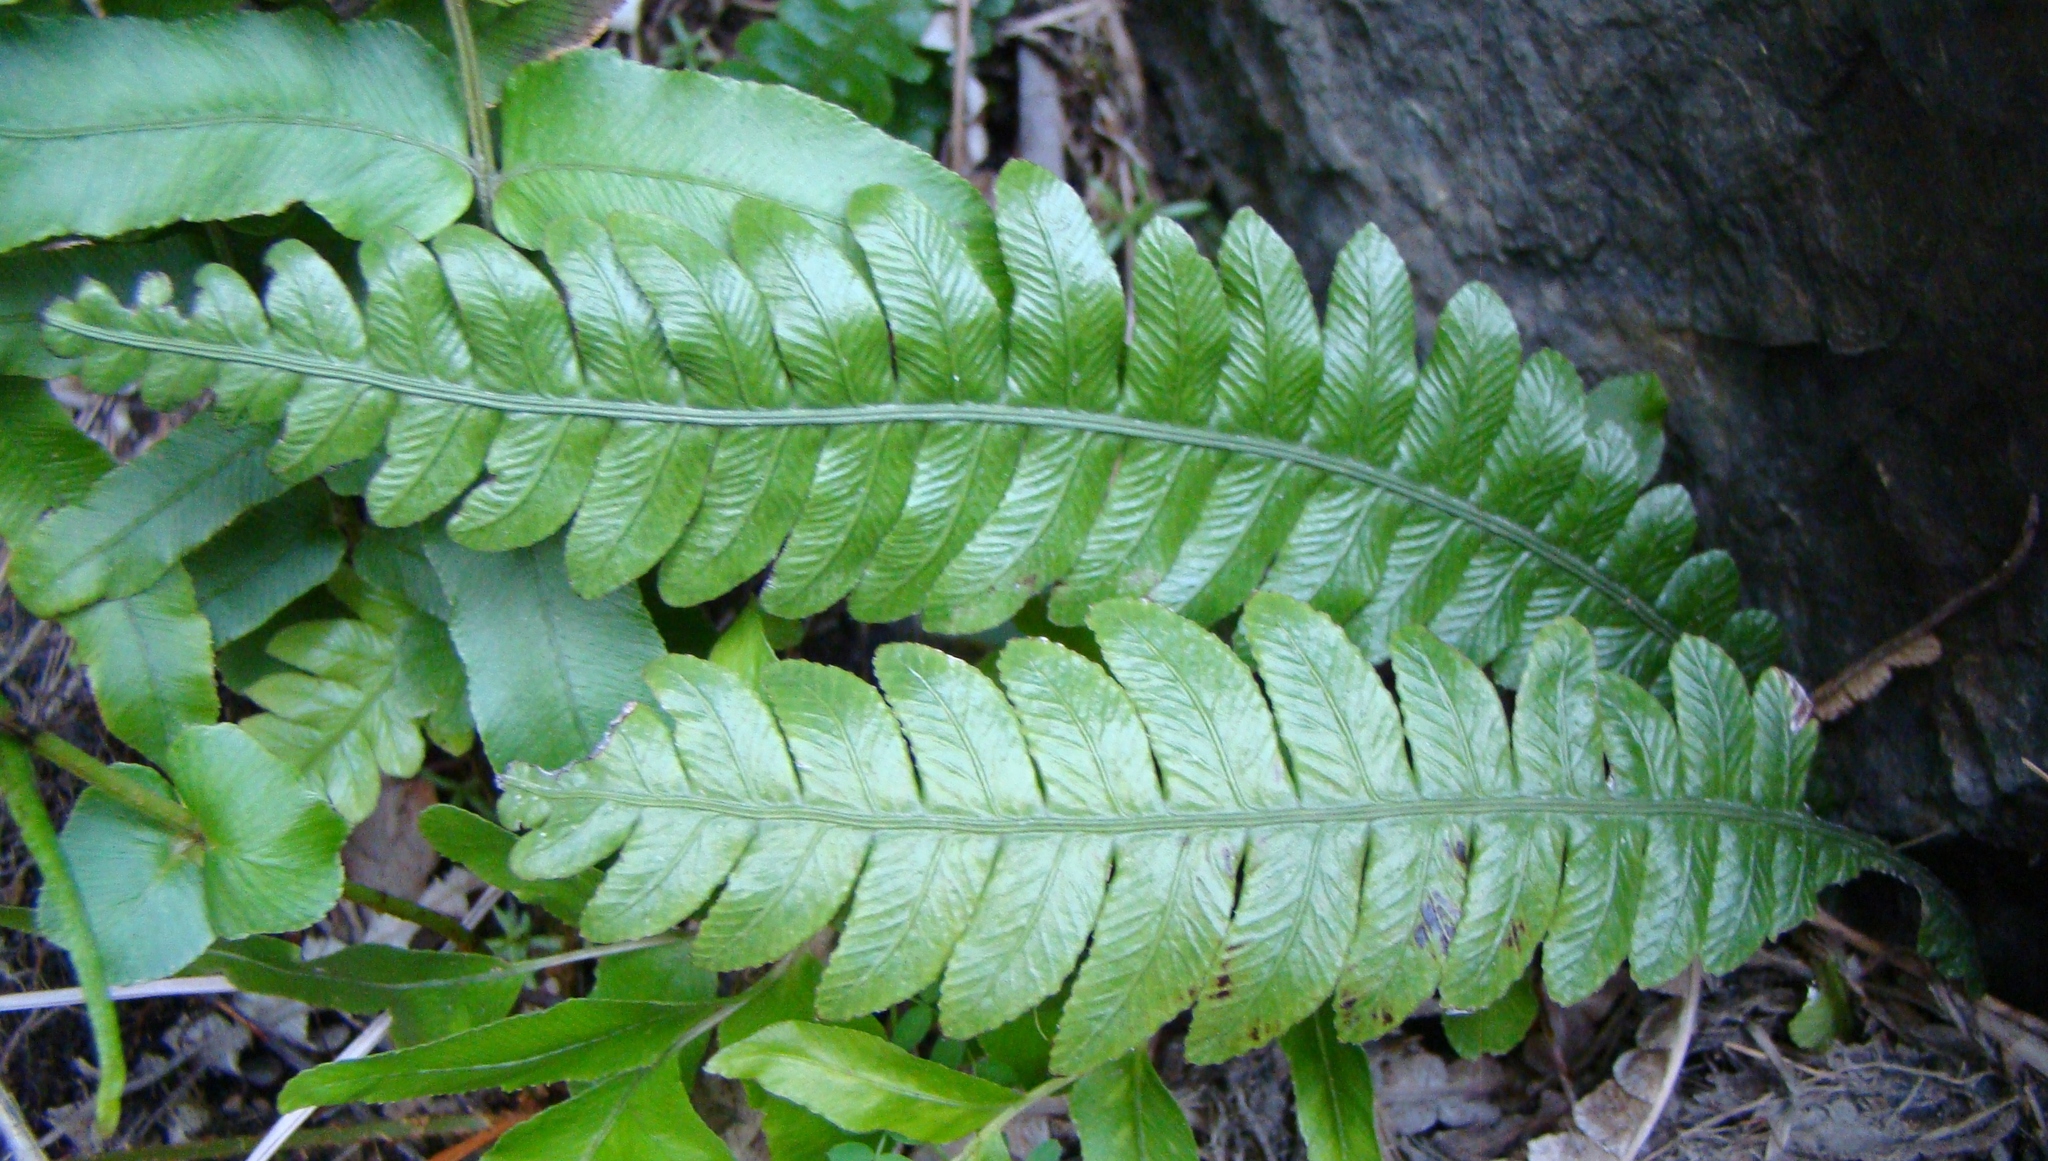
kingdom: Plantae
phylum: Tracheophyta
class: Polypodiopsida
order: Polypodiales
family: Blechnaceae
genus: Austroblechnum
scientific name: Austroblechnum lanceolatum
